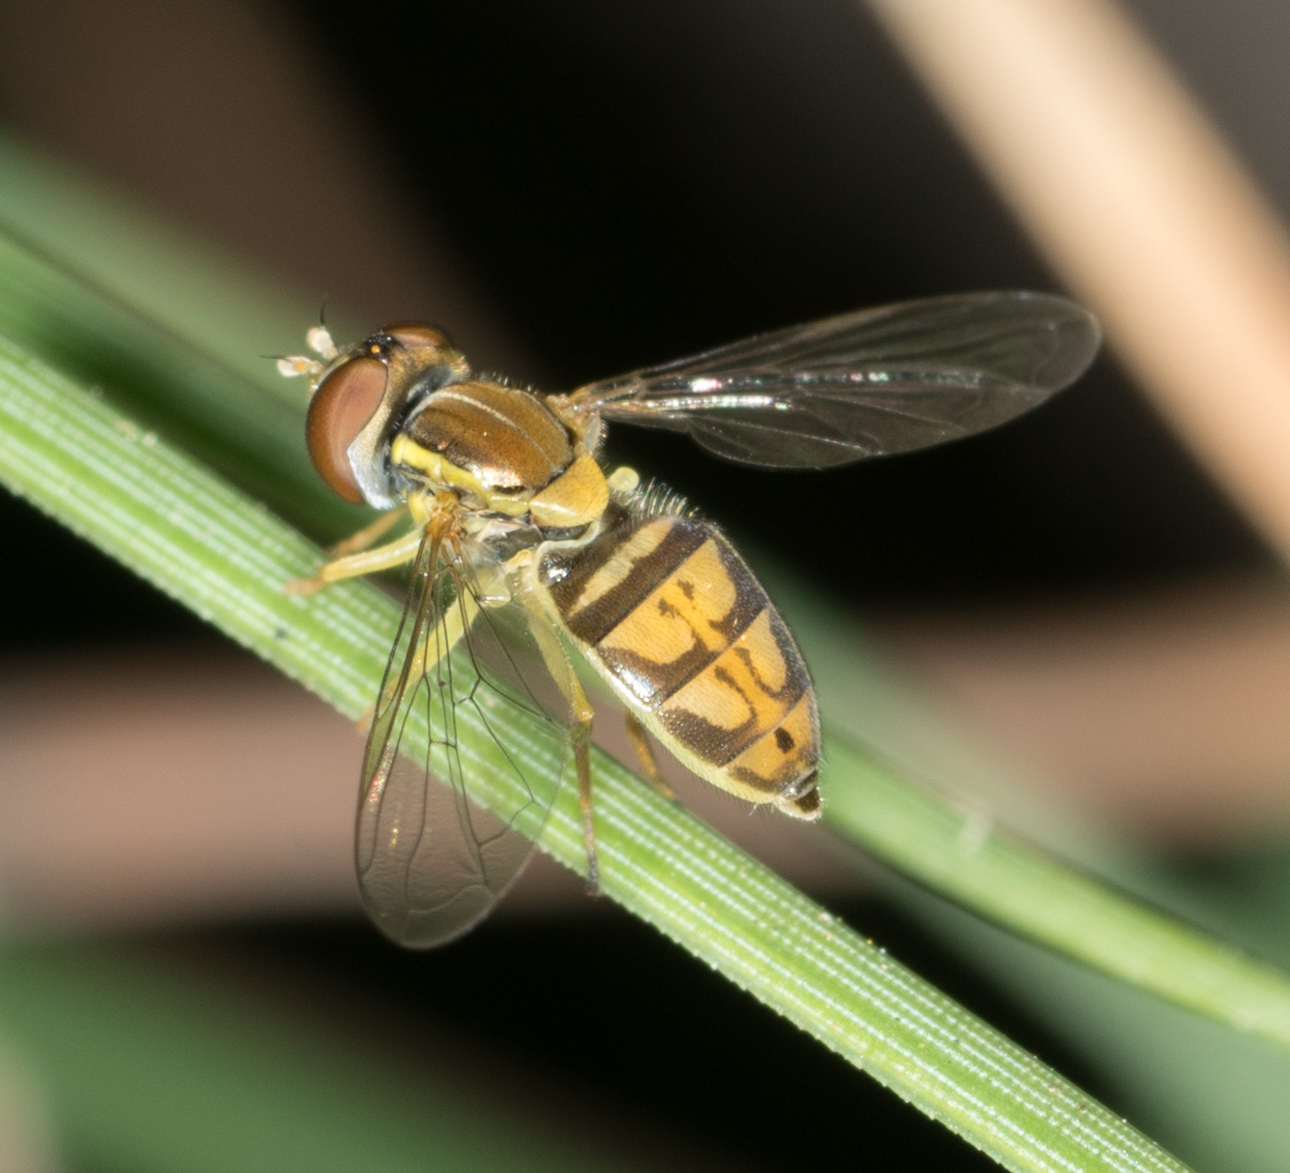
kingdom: Animalia
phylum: Arthropoda
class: Insecta
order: Diptera
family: Syrphidae
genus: Toxomerus
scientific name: Toxomerus marginatus
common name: Syrphid fly
